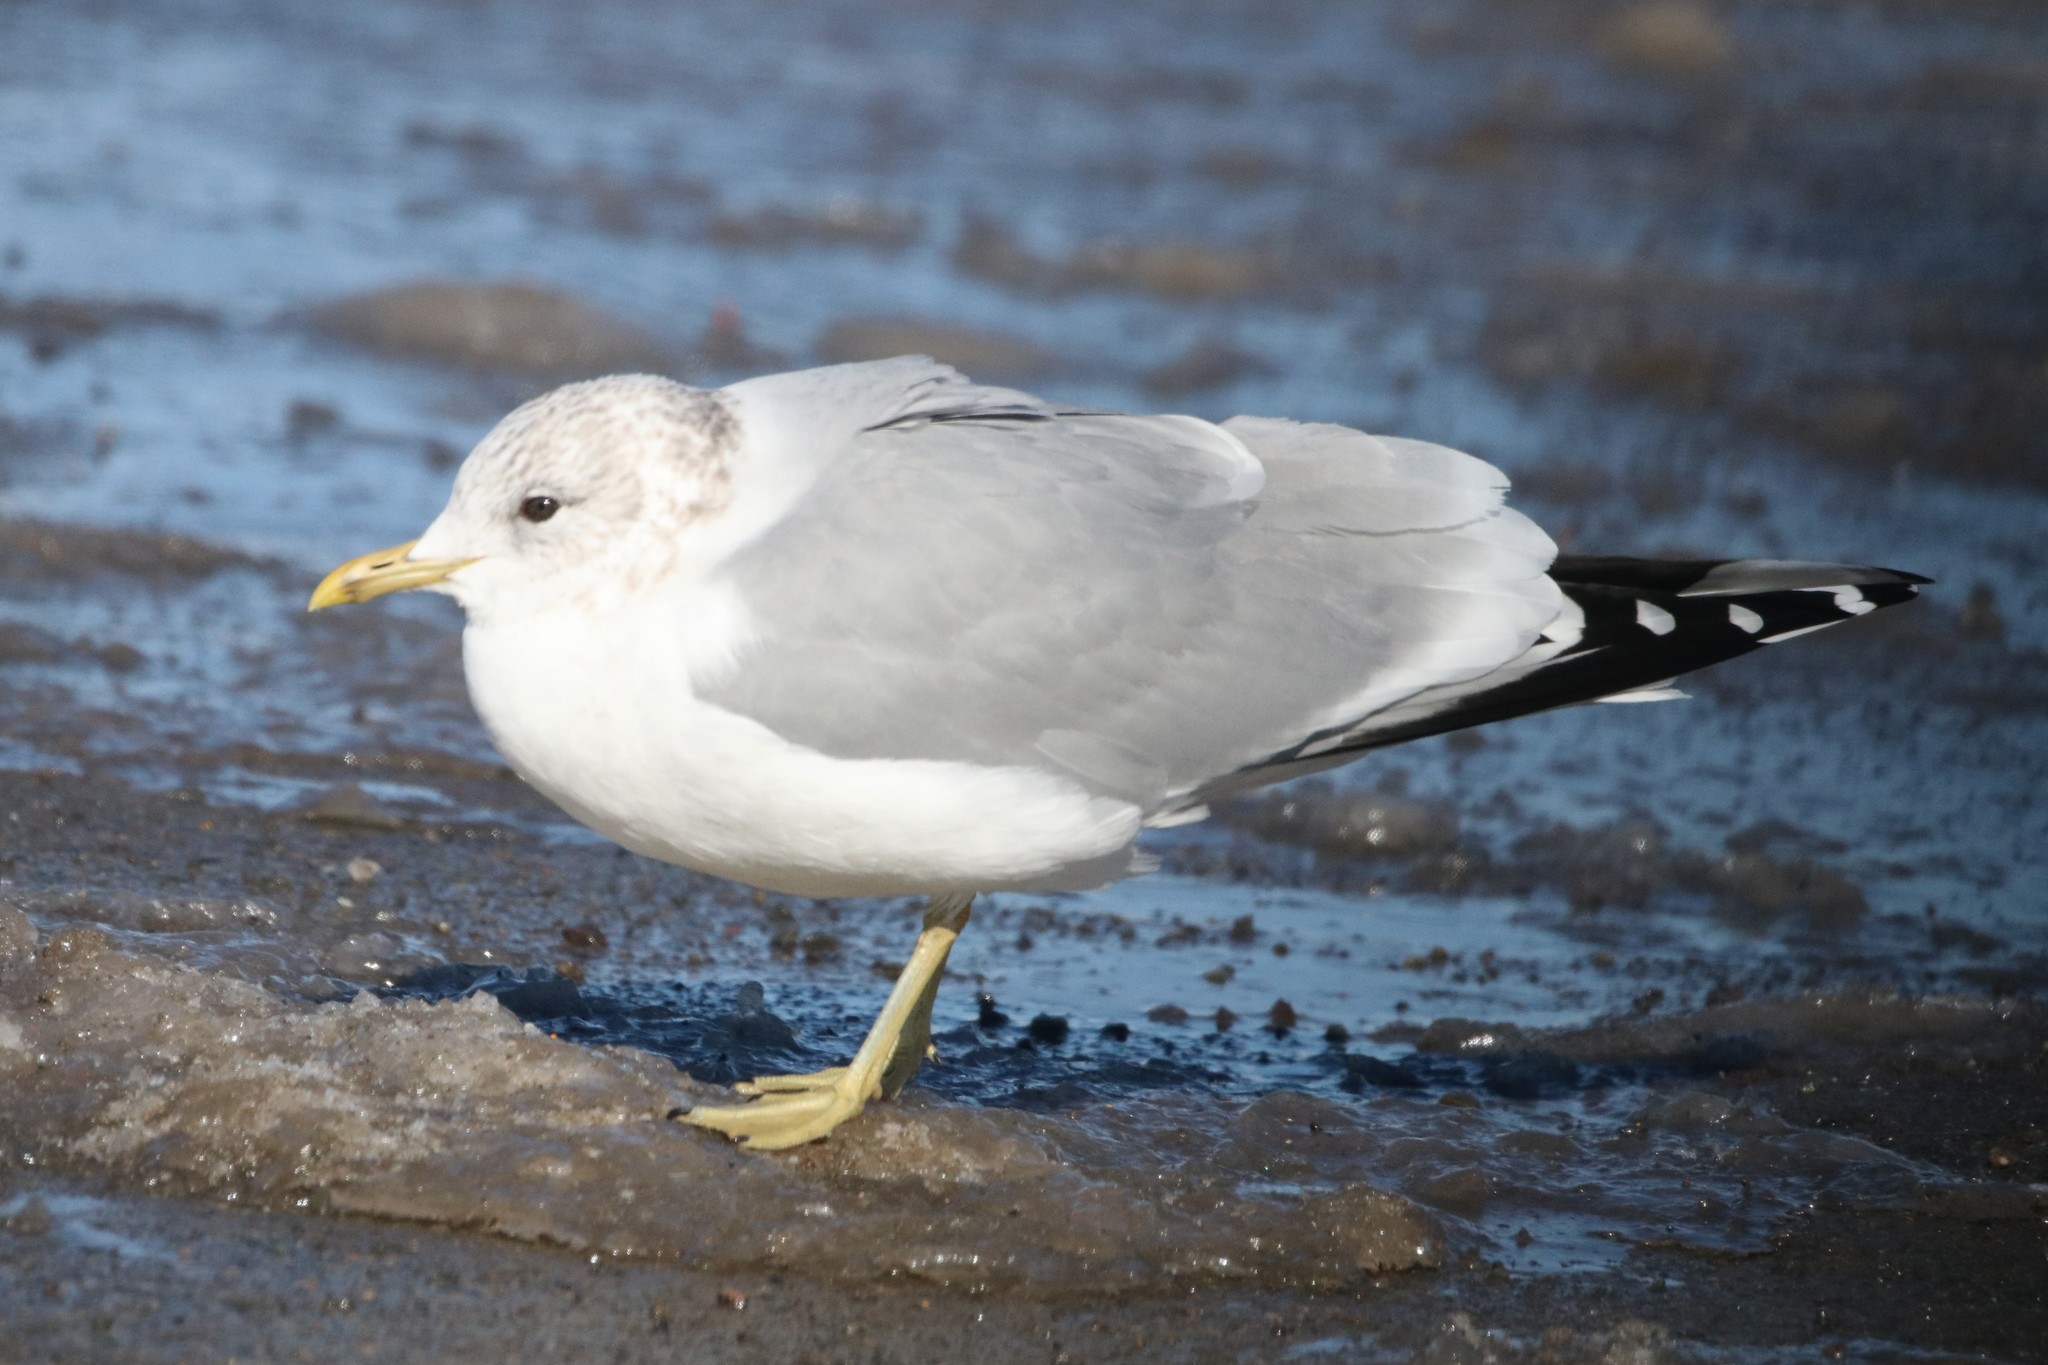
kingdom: Animalia
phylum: Chordata
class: Aves
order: Charadriiformes
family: Laridae
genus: Larus
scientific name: Larus canus
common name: Mew gull
